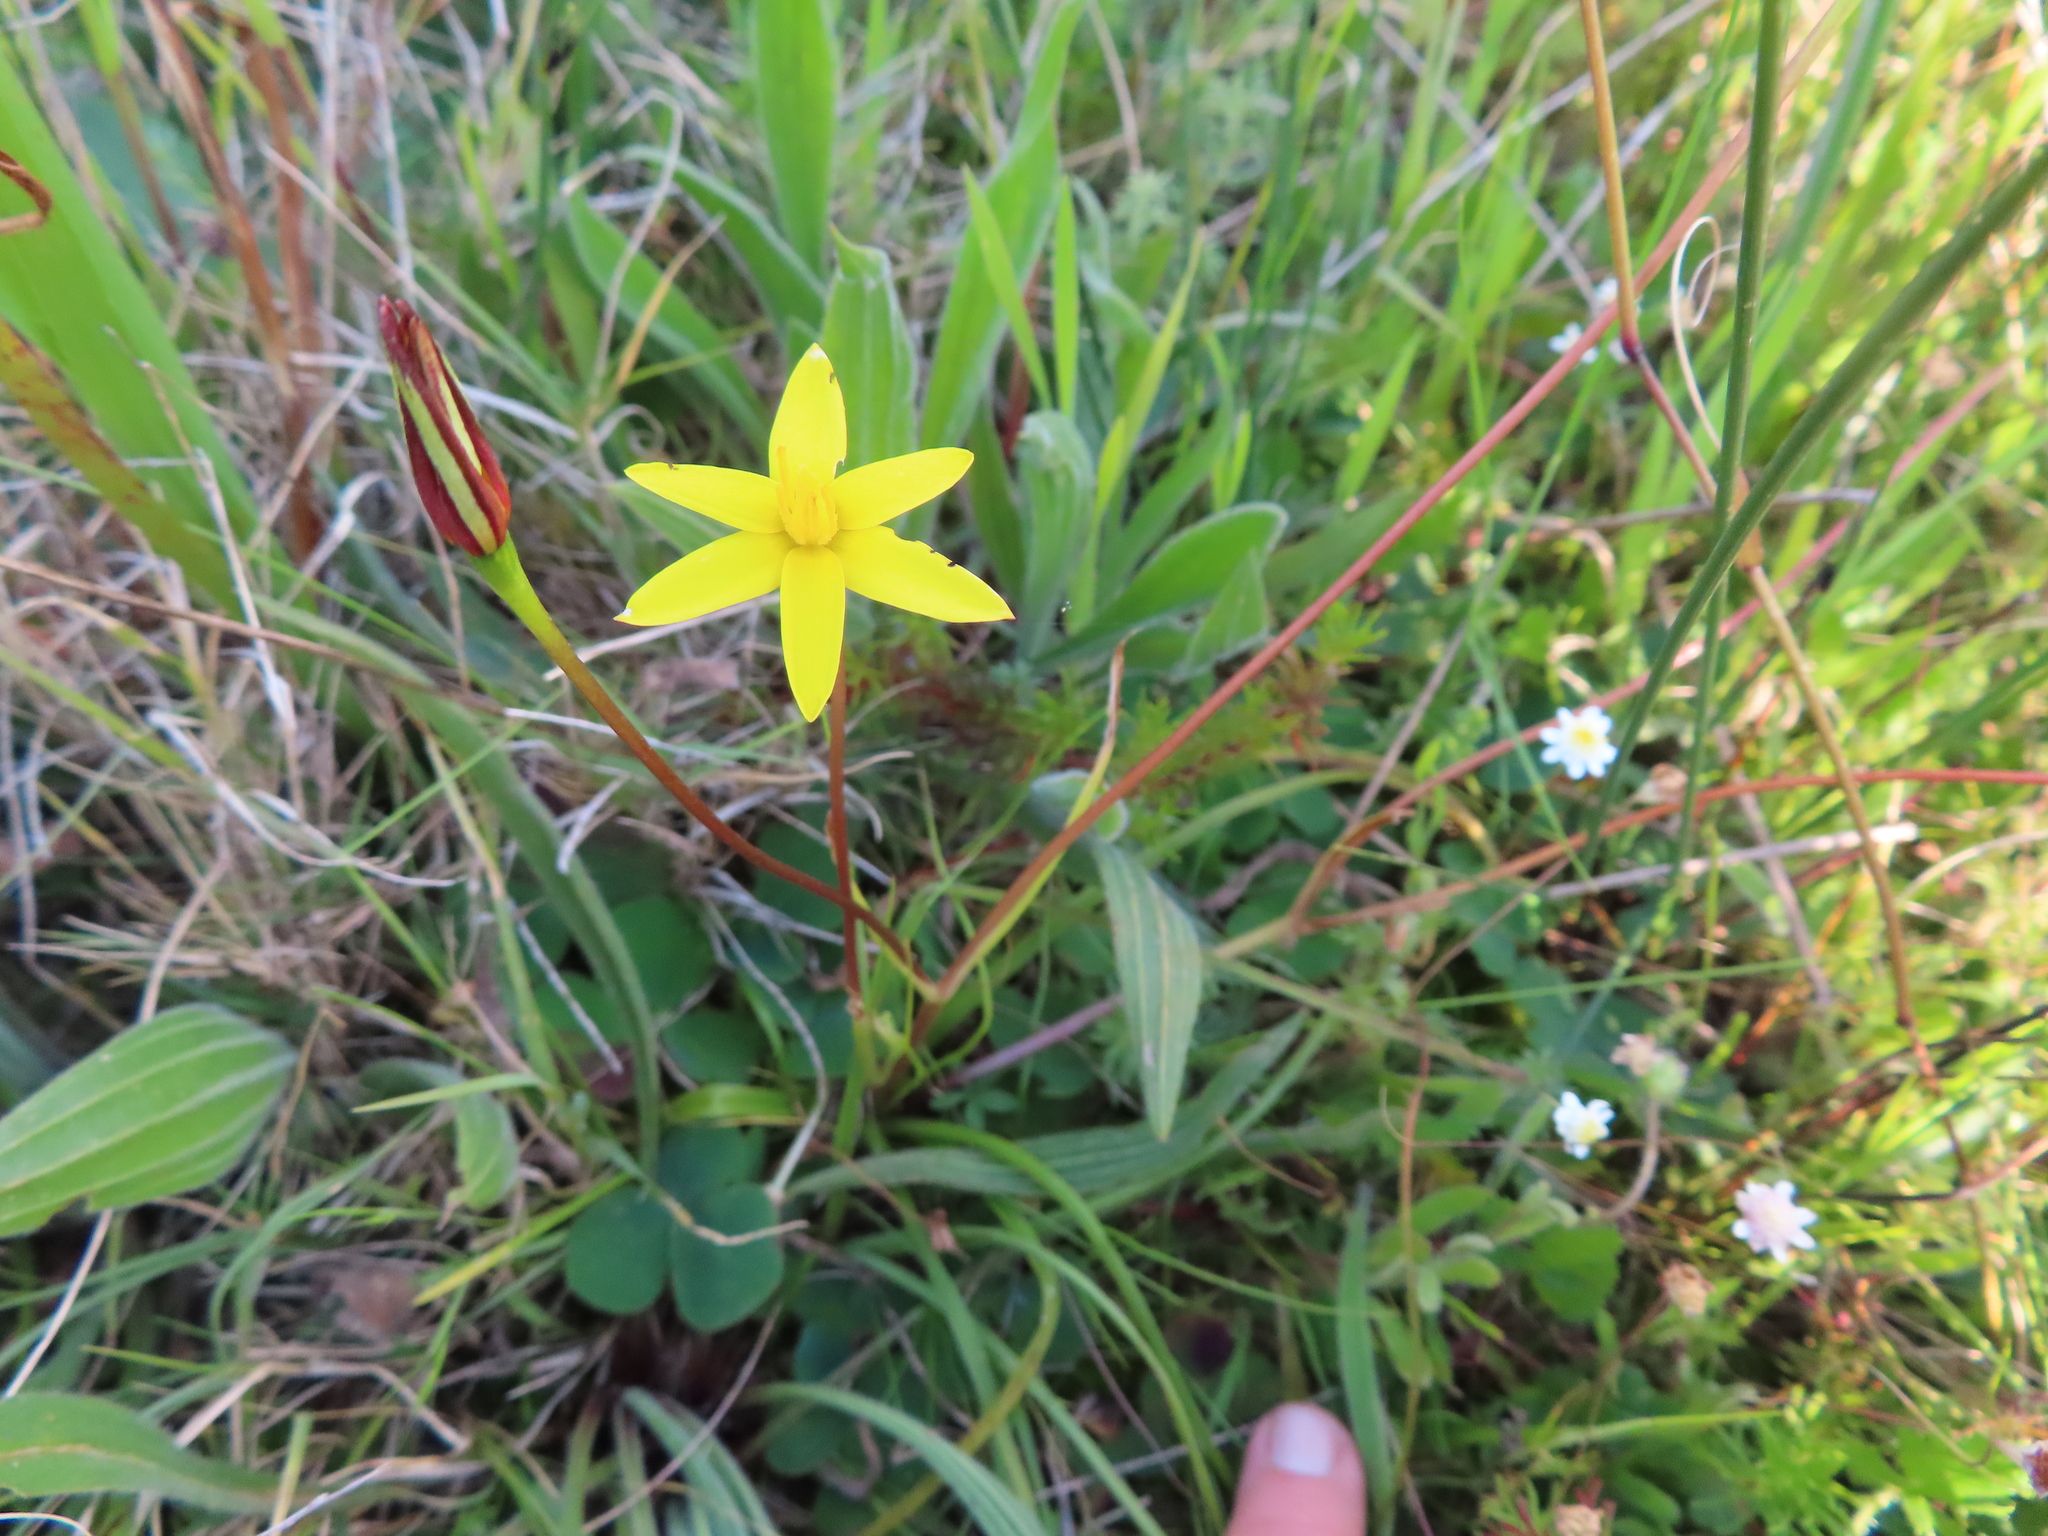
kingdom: Plantae
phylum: Tracheophyta
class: Liliopsida
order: Asparagales
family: Hypoxidaceae
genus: Pauridia
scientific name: Pauridia flaccida
